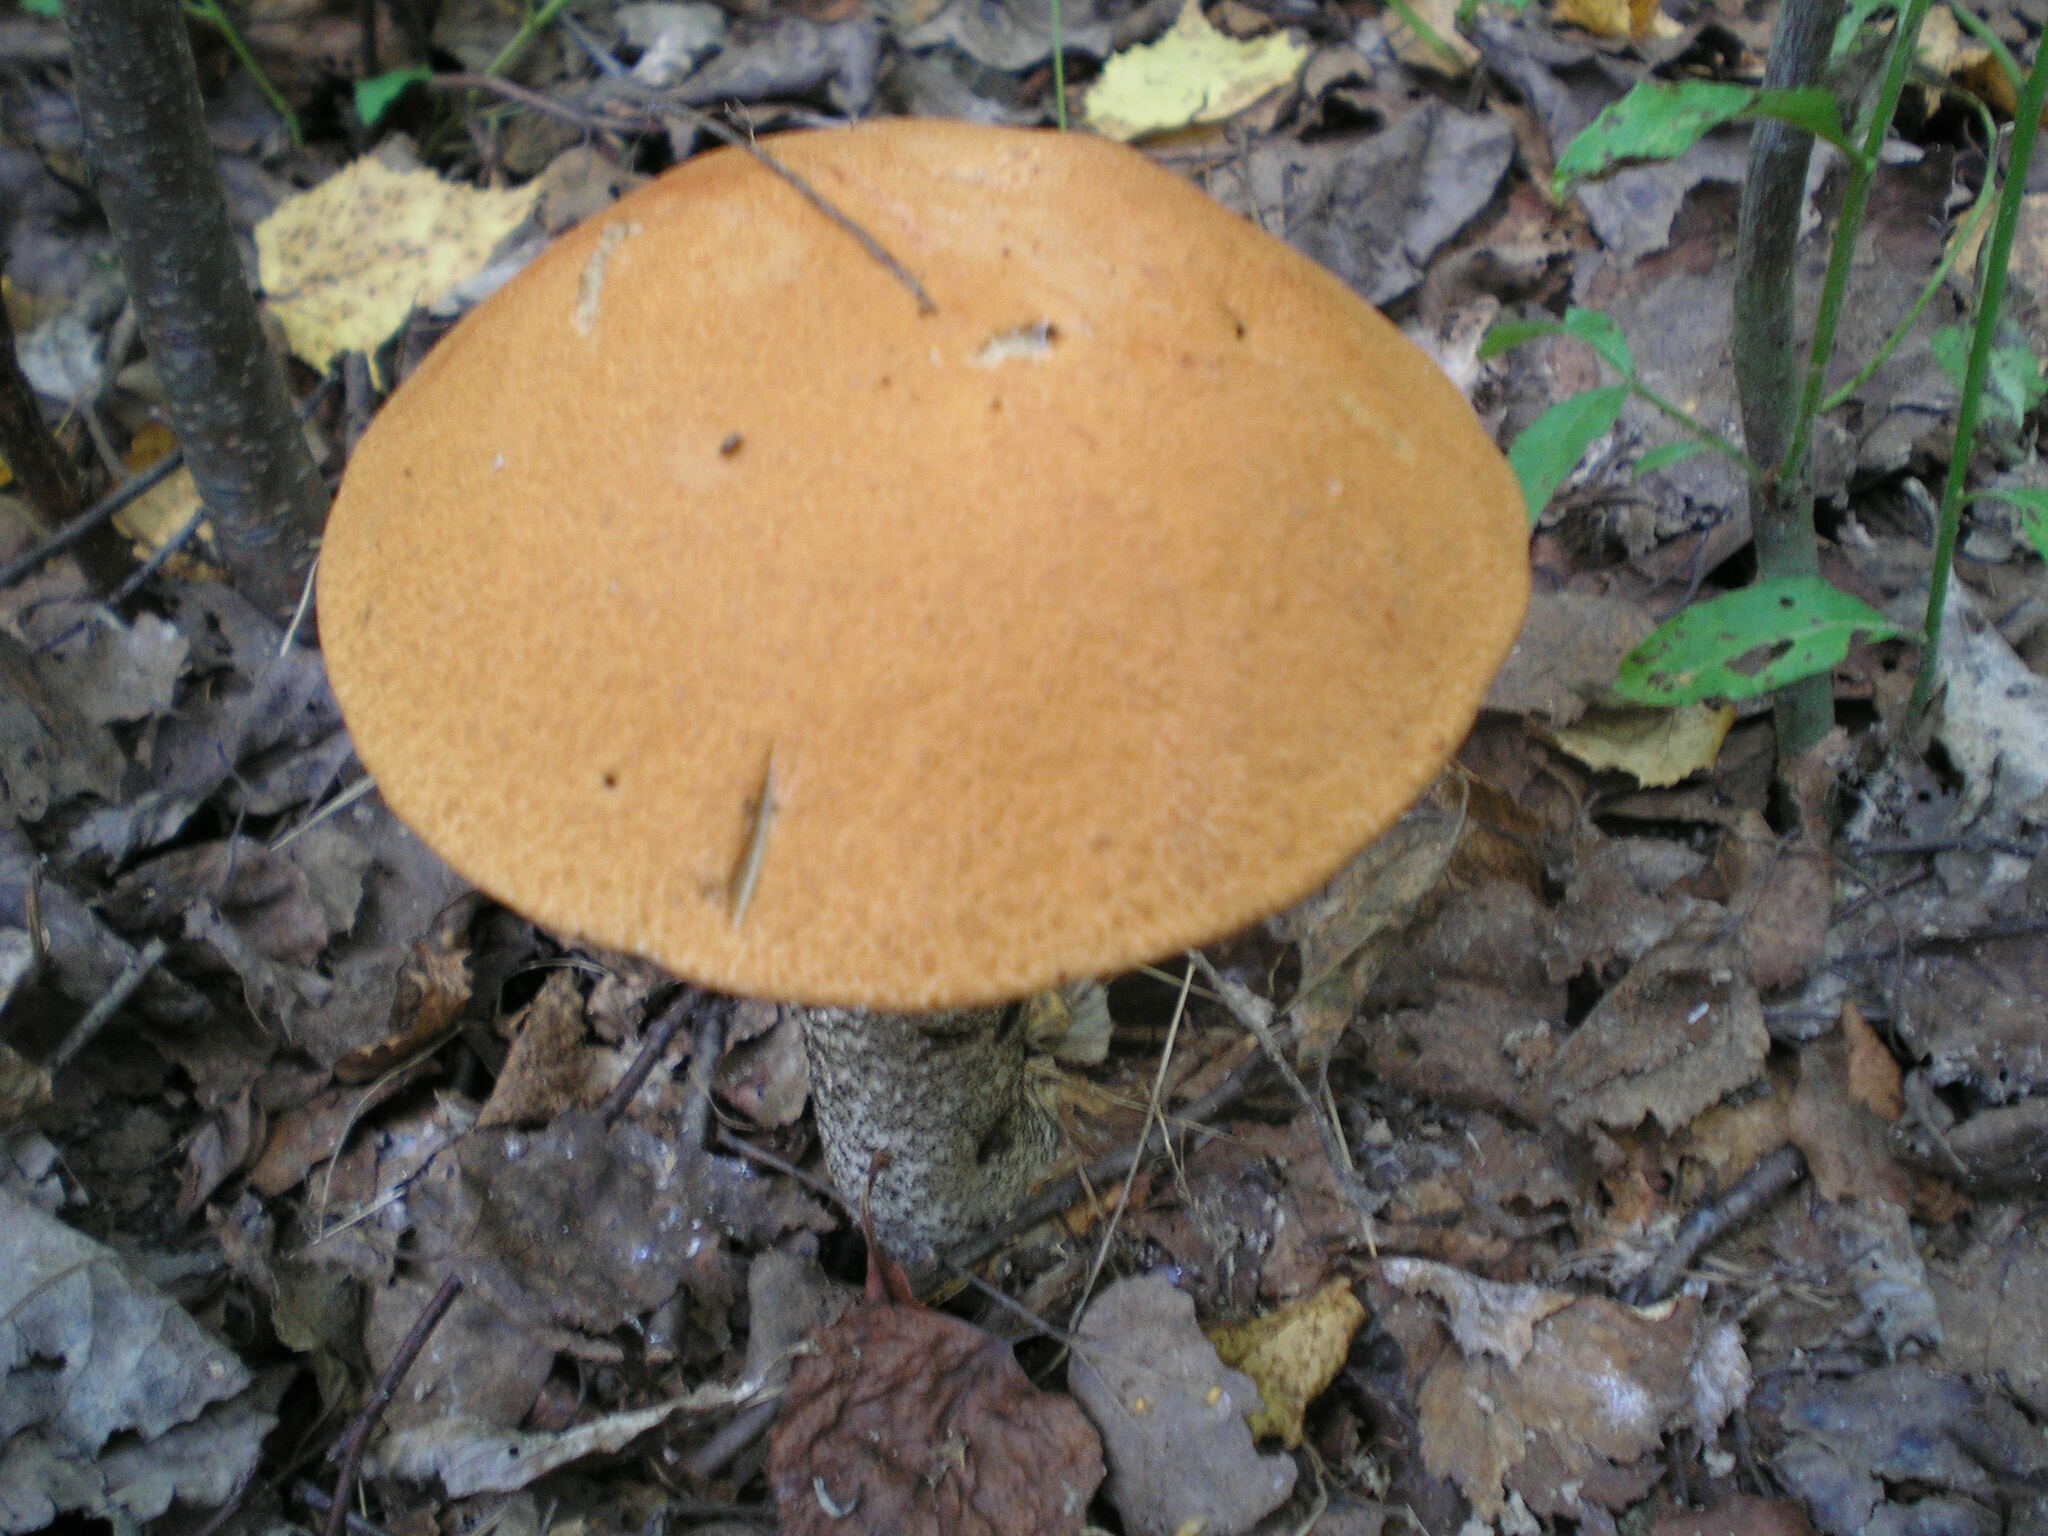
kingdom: Fungi
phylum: Basidiomycota
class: Agaricomycetes
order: Boletales
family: Boletaceae
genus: Leccinum
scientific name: Leccinum versipelle
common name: Orange birch bolete
